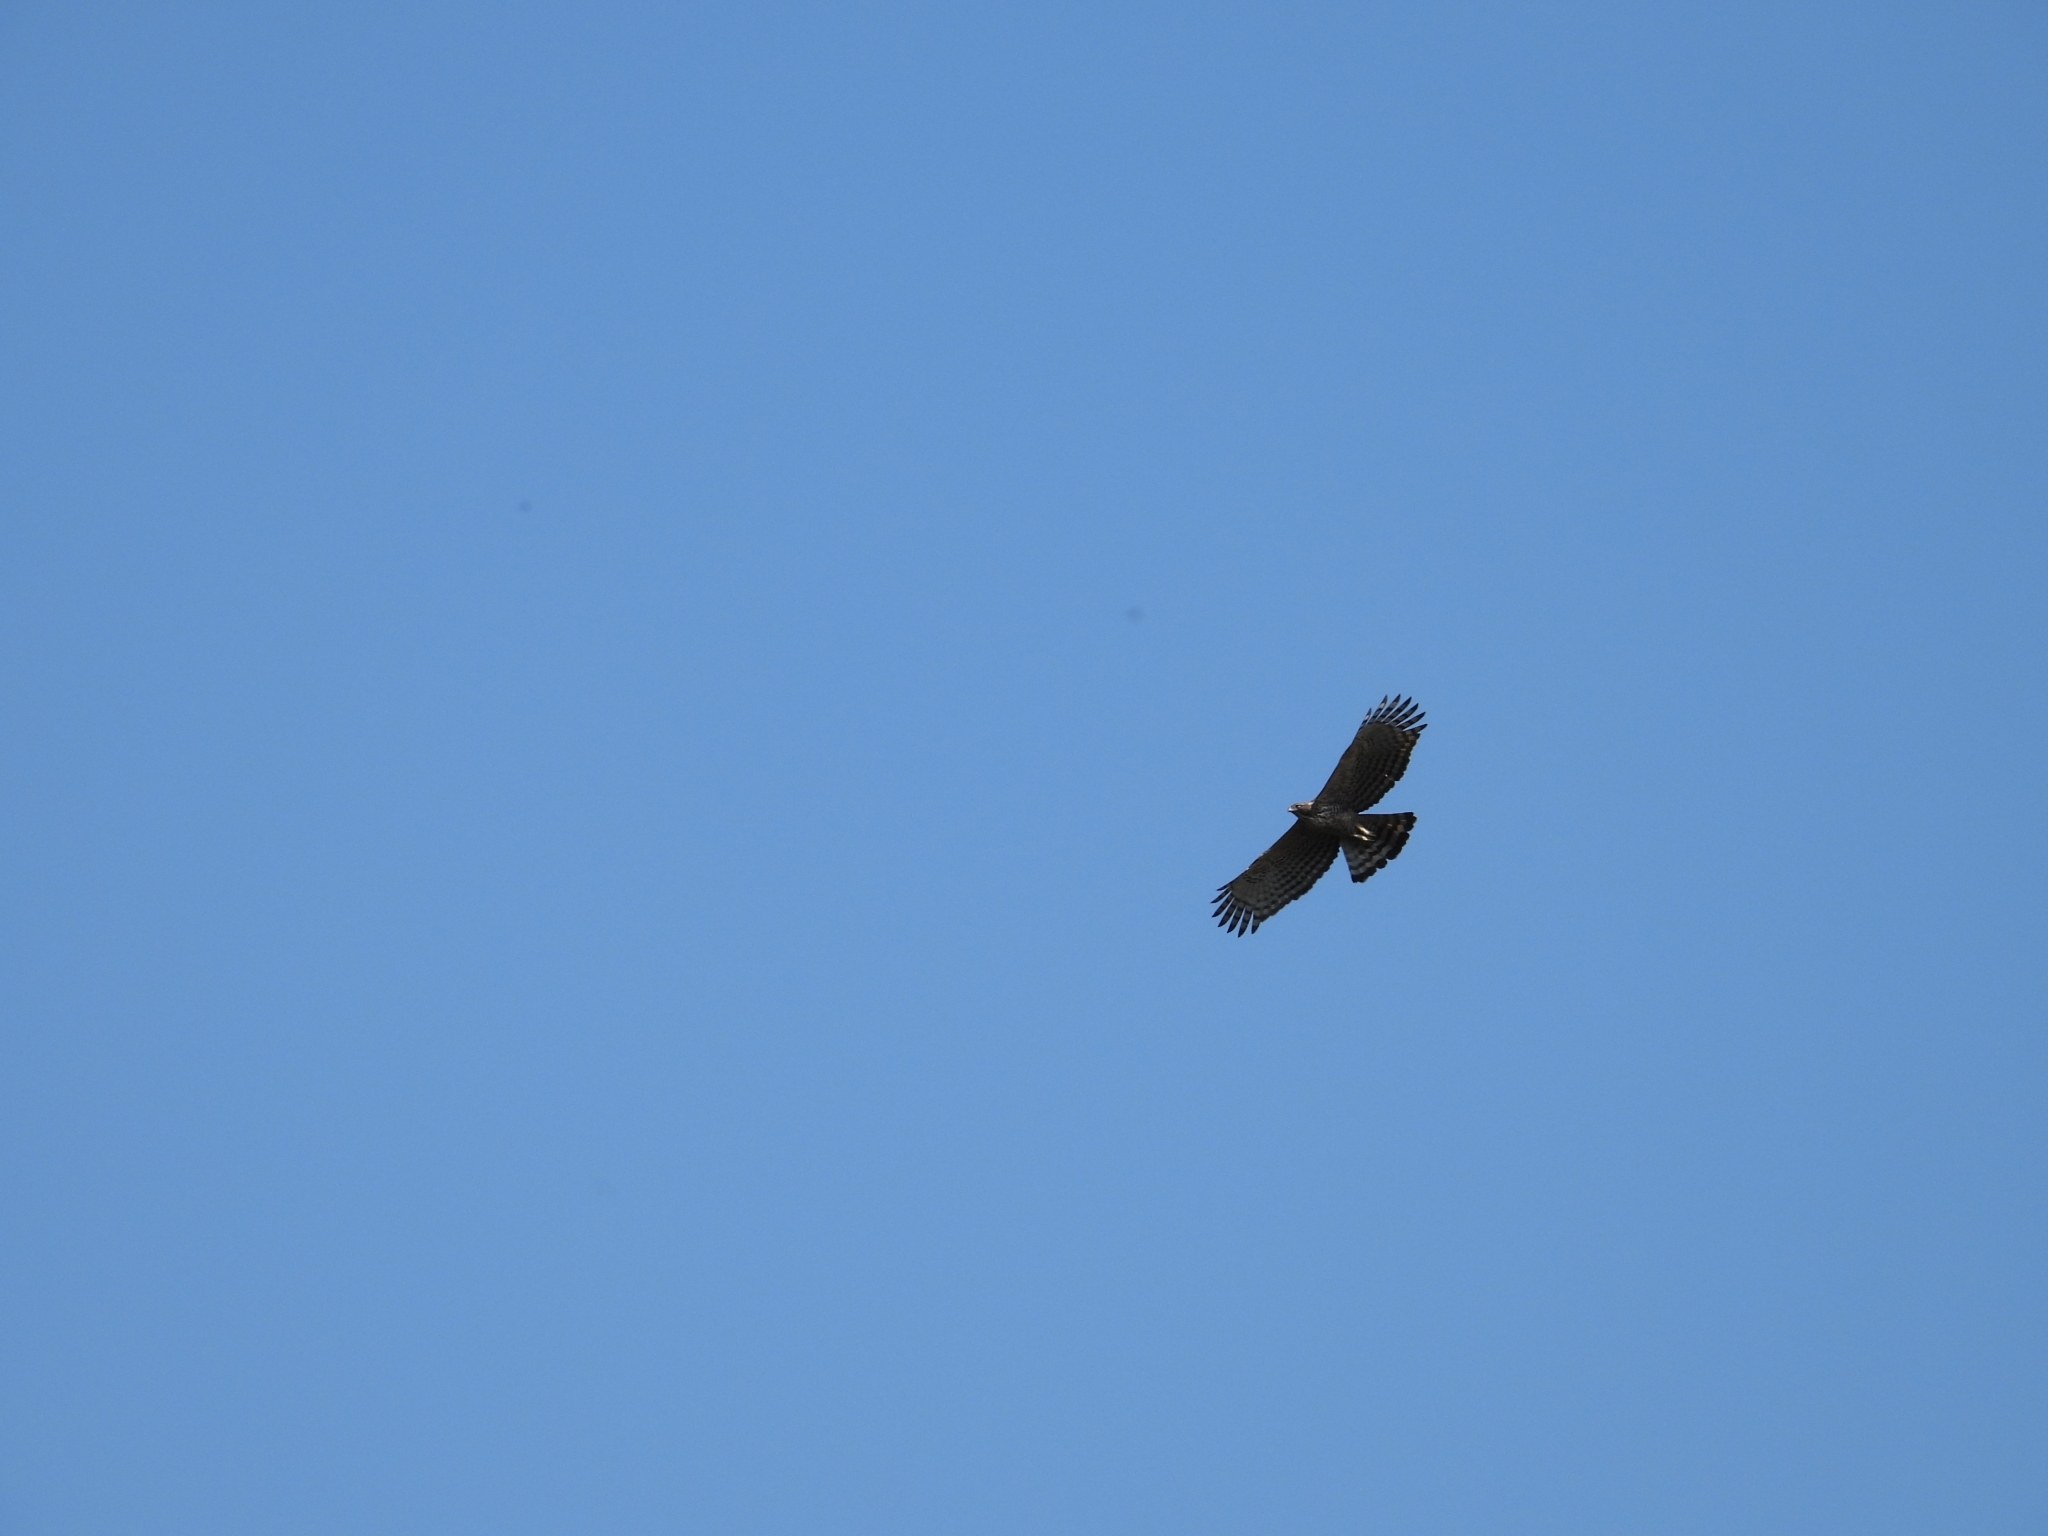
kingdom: Animalia
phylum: Chordata
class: Aves
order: Accipitriformes
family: Accipitridae
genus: Nisaetus
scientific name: Nisaetus nipalensis
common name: Mountain hawk-eagle
